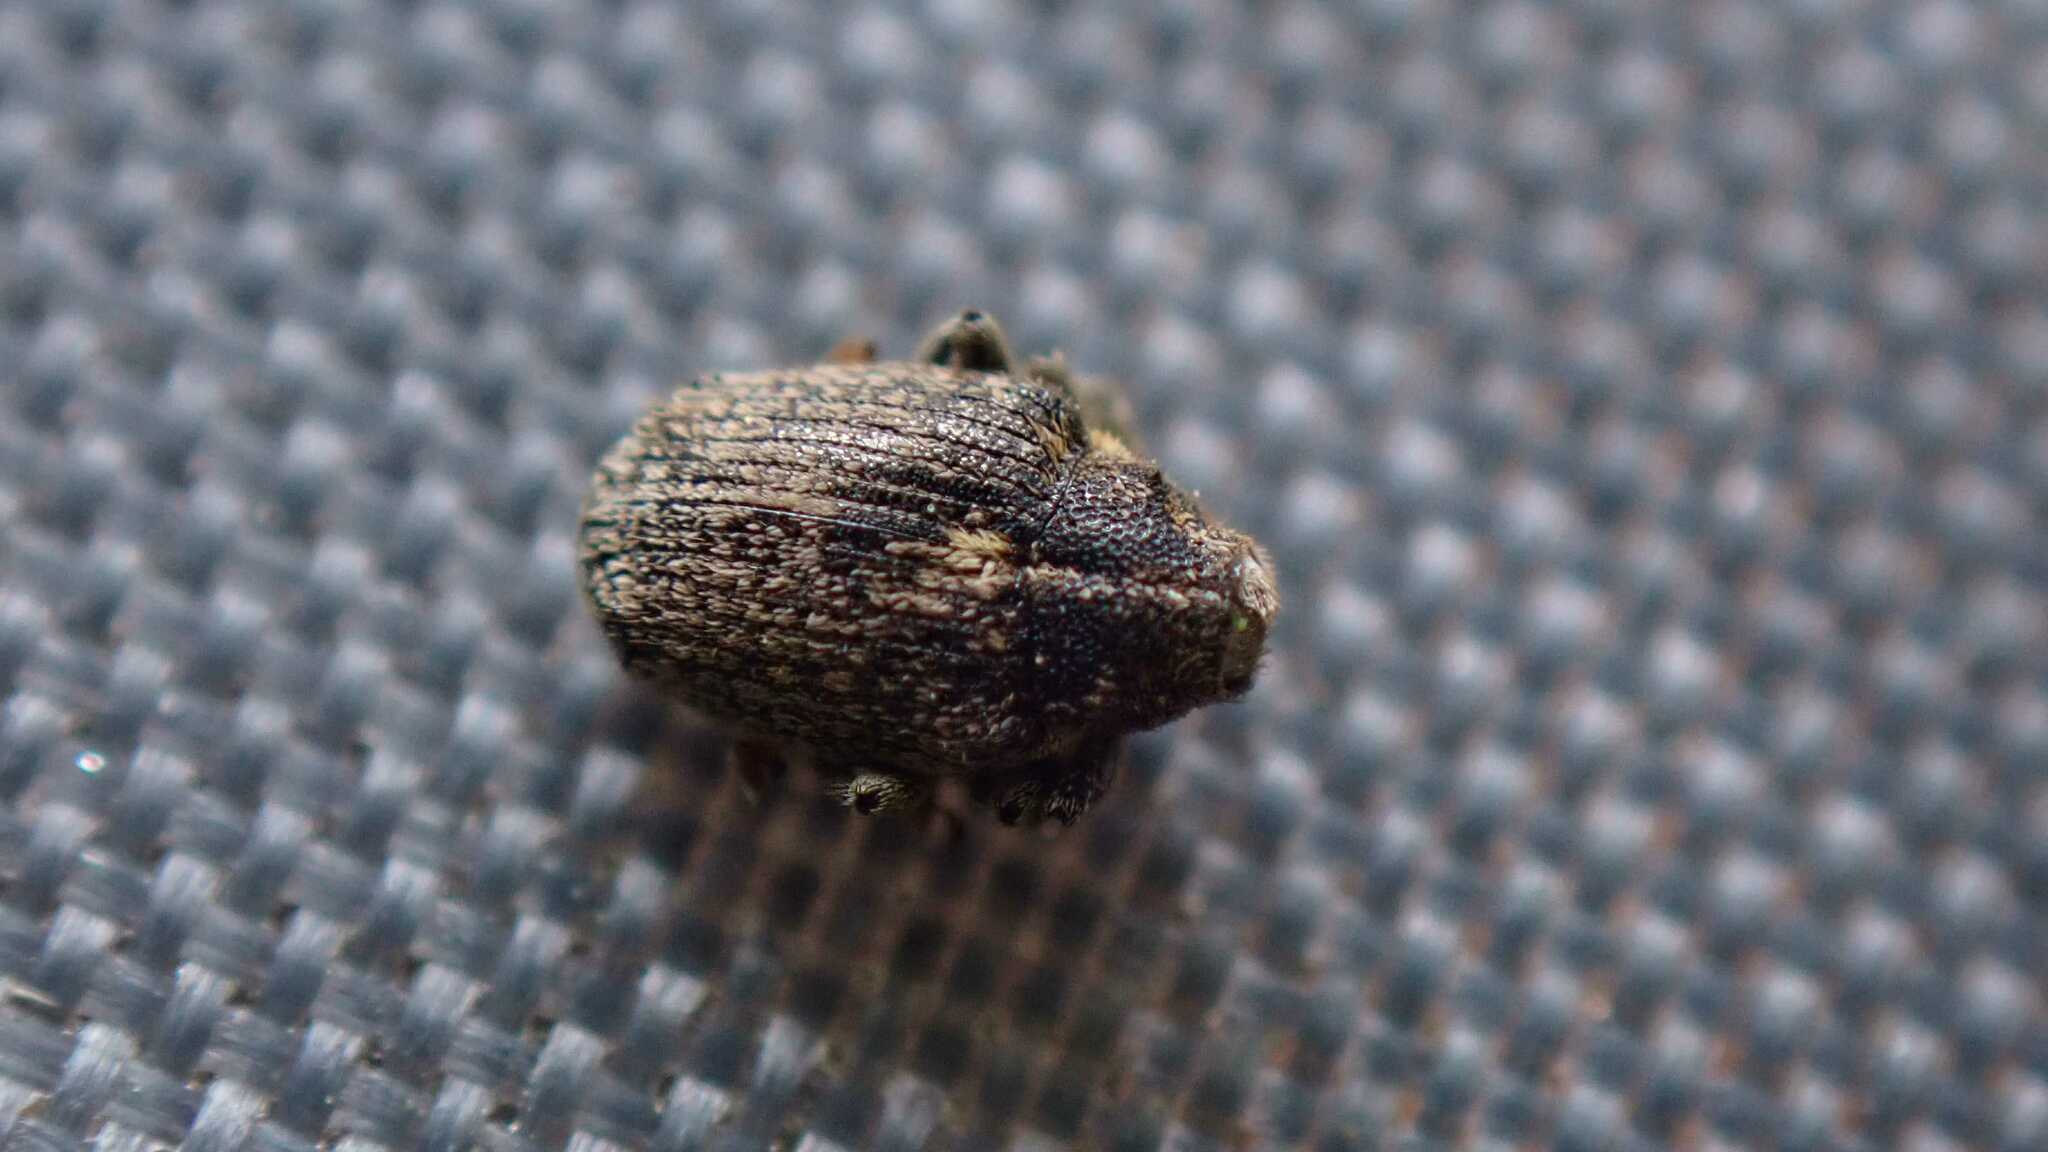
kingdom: Animalia
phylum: Arthropoda
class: Insecta
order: Coleoptera
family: Curculionidae
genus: Ceutorhynchus
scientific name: Ceutorhynchus pallidactylus
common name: Cabbage stem weavil
